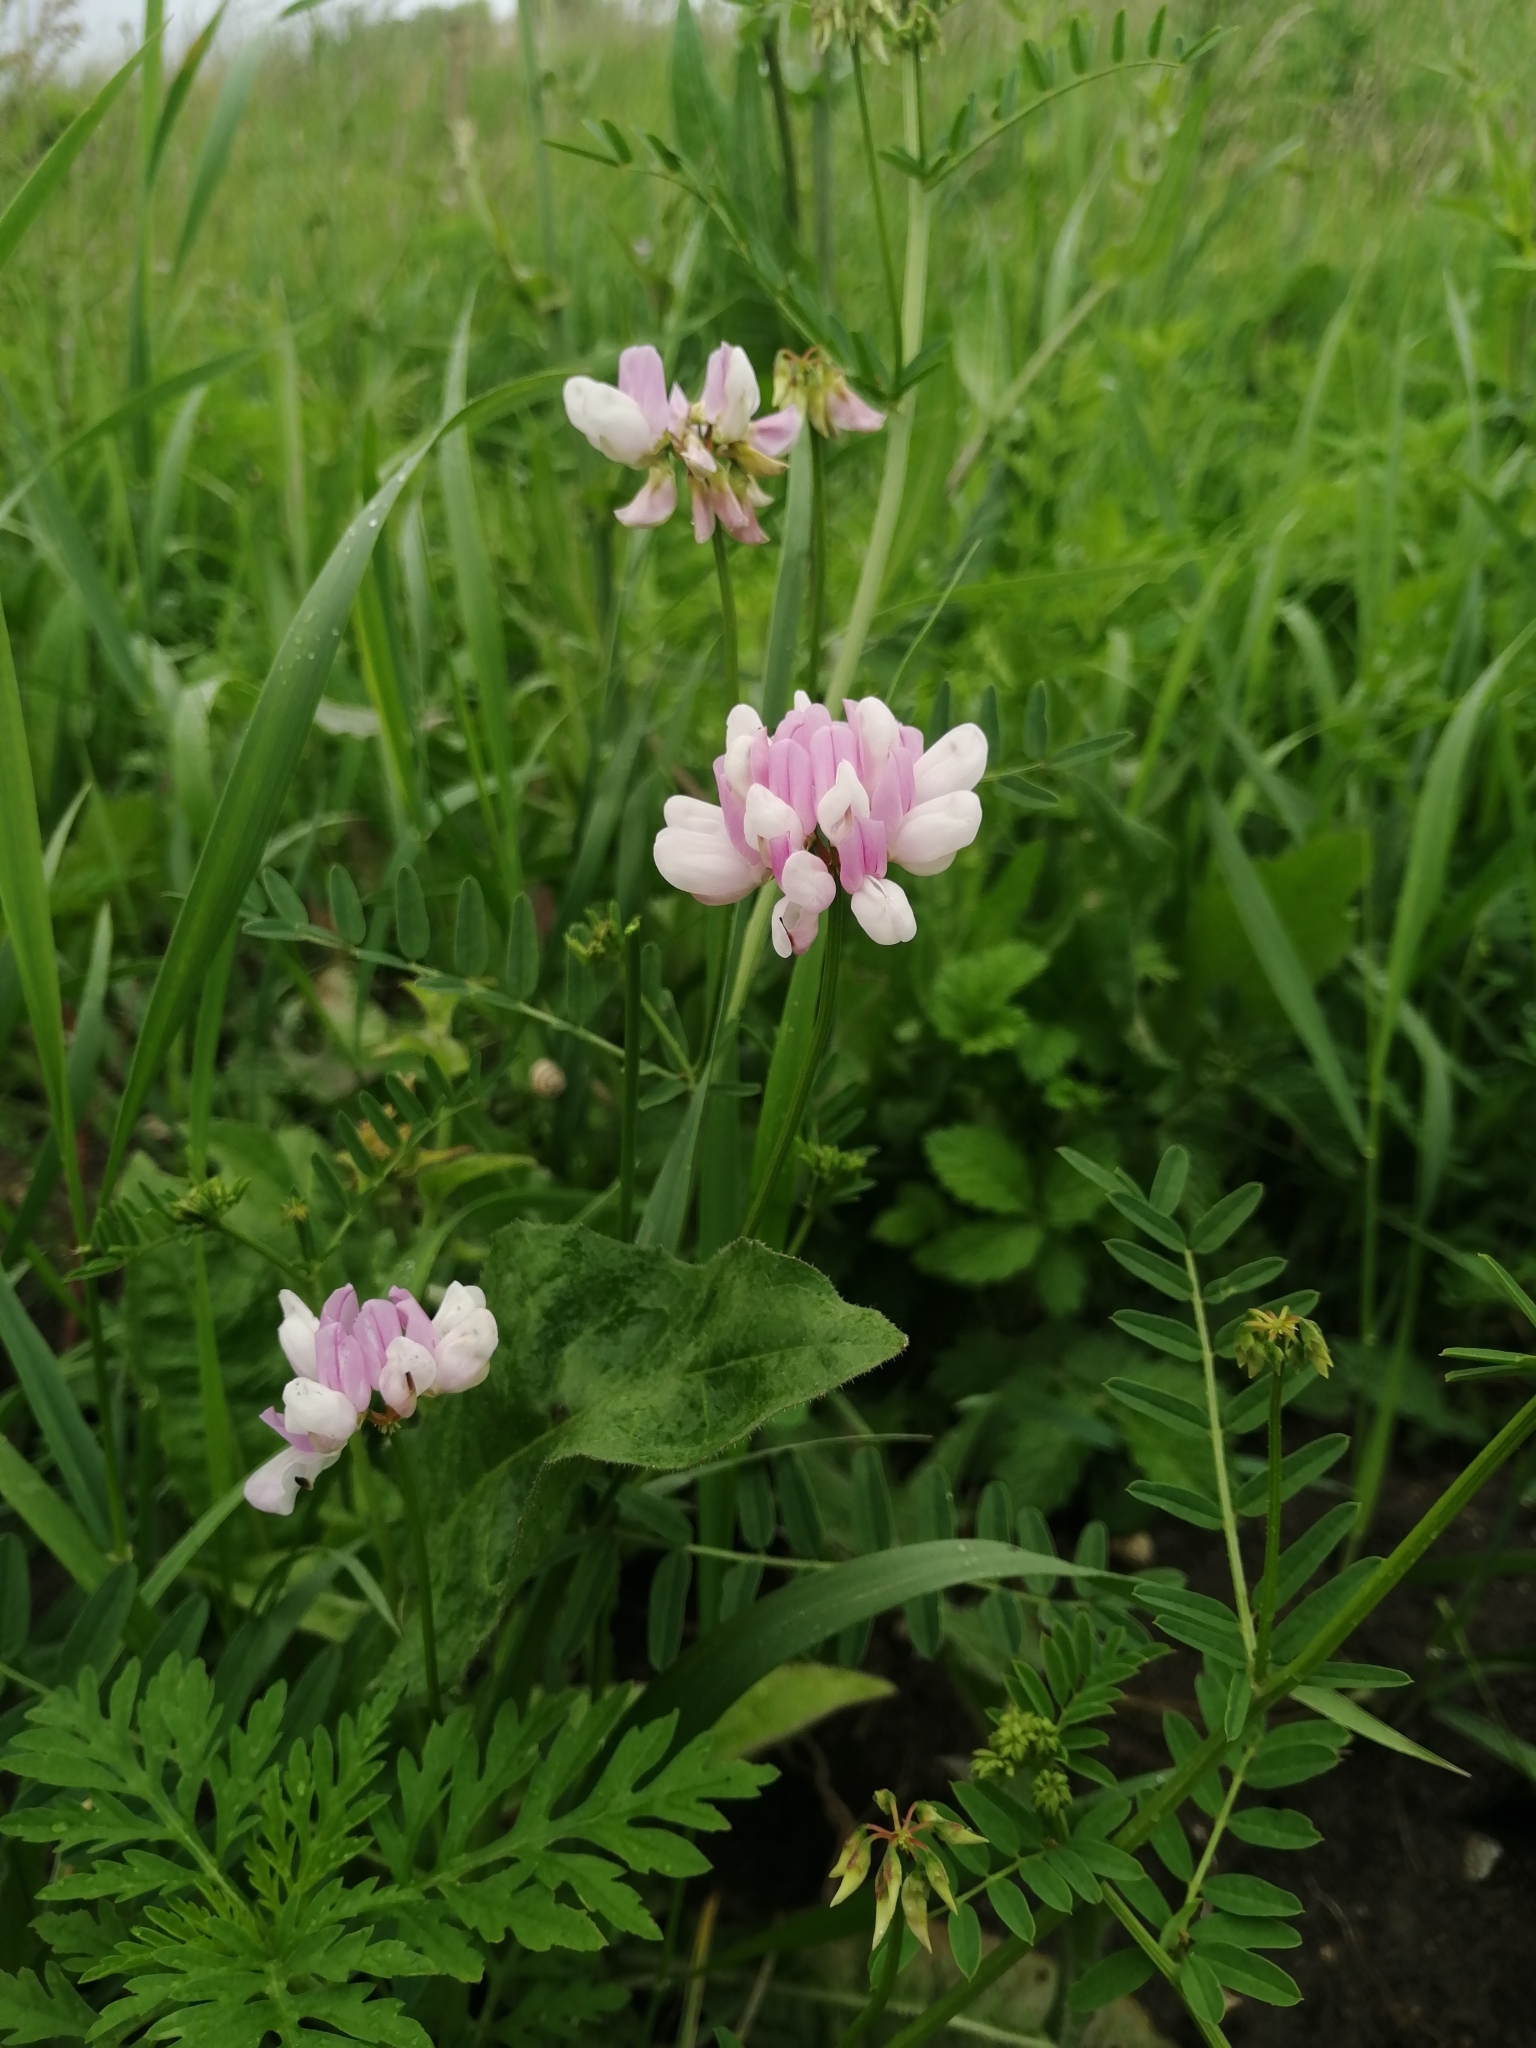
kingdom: Plantae
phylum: Tracheophyta
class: Magnoliopsida
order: Fabales
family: Fabaceae
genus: Coronilla
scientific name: Coronilla varia
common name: Crownvetch
